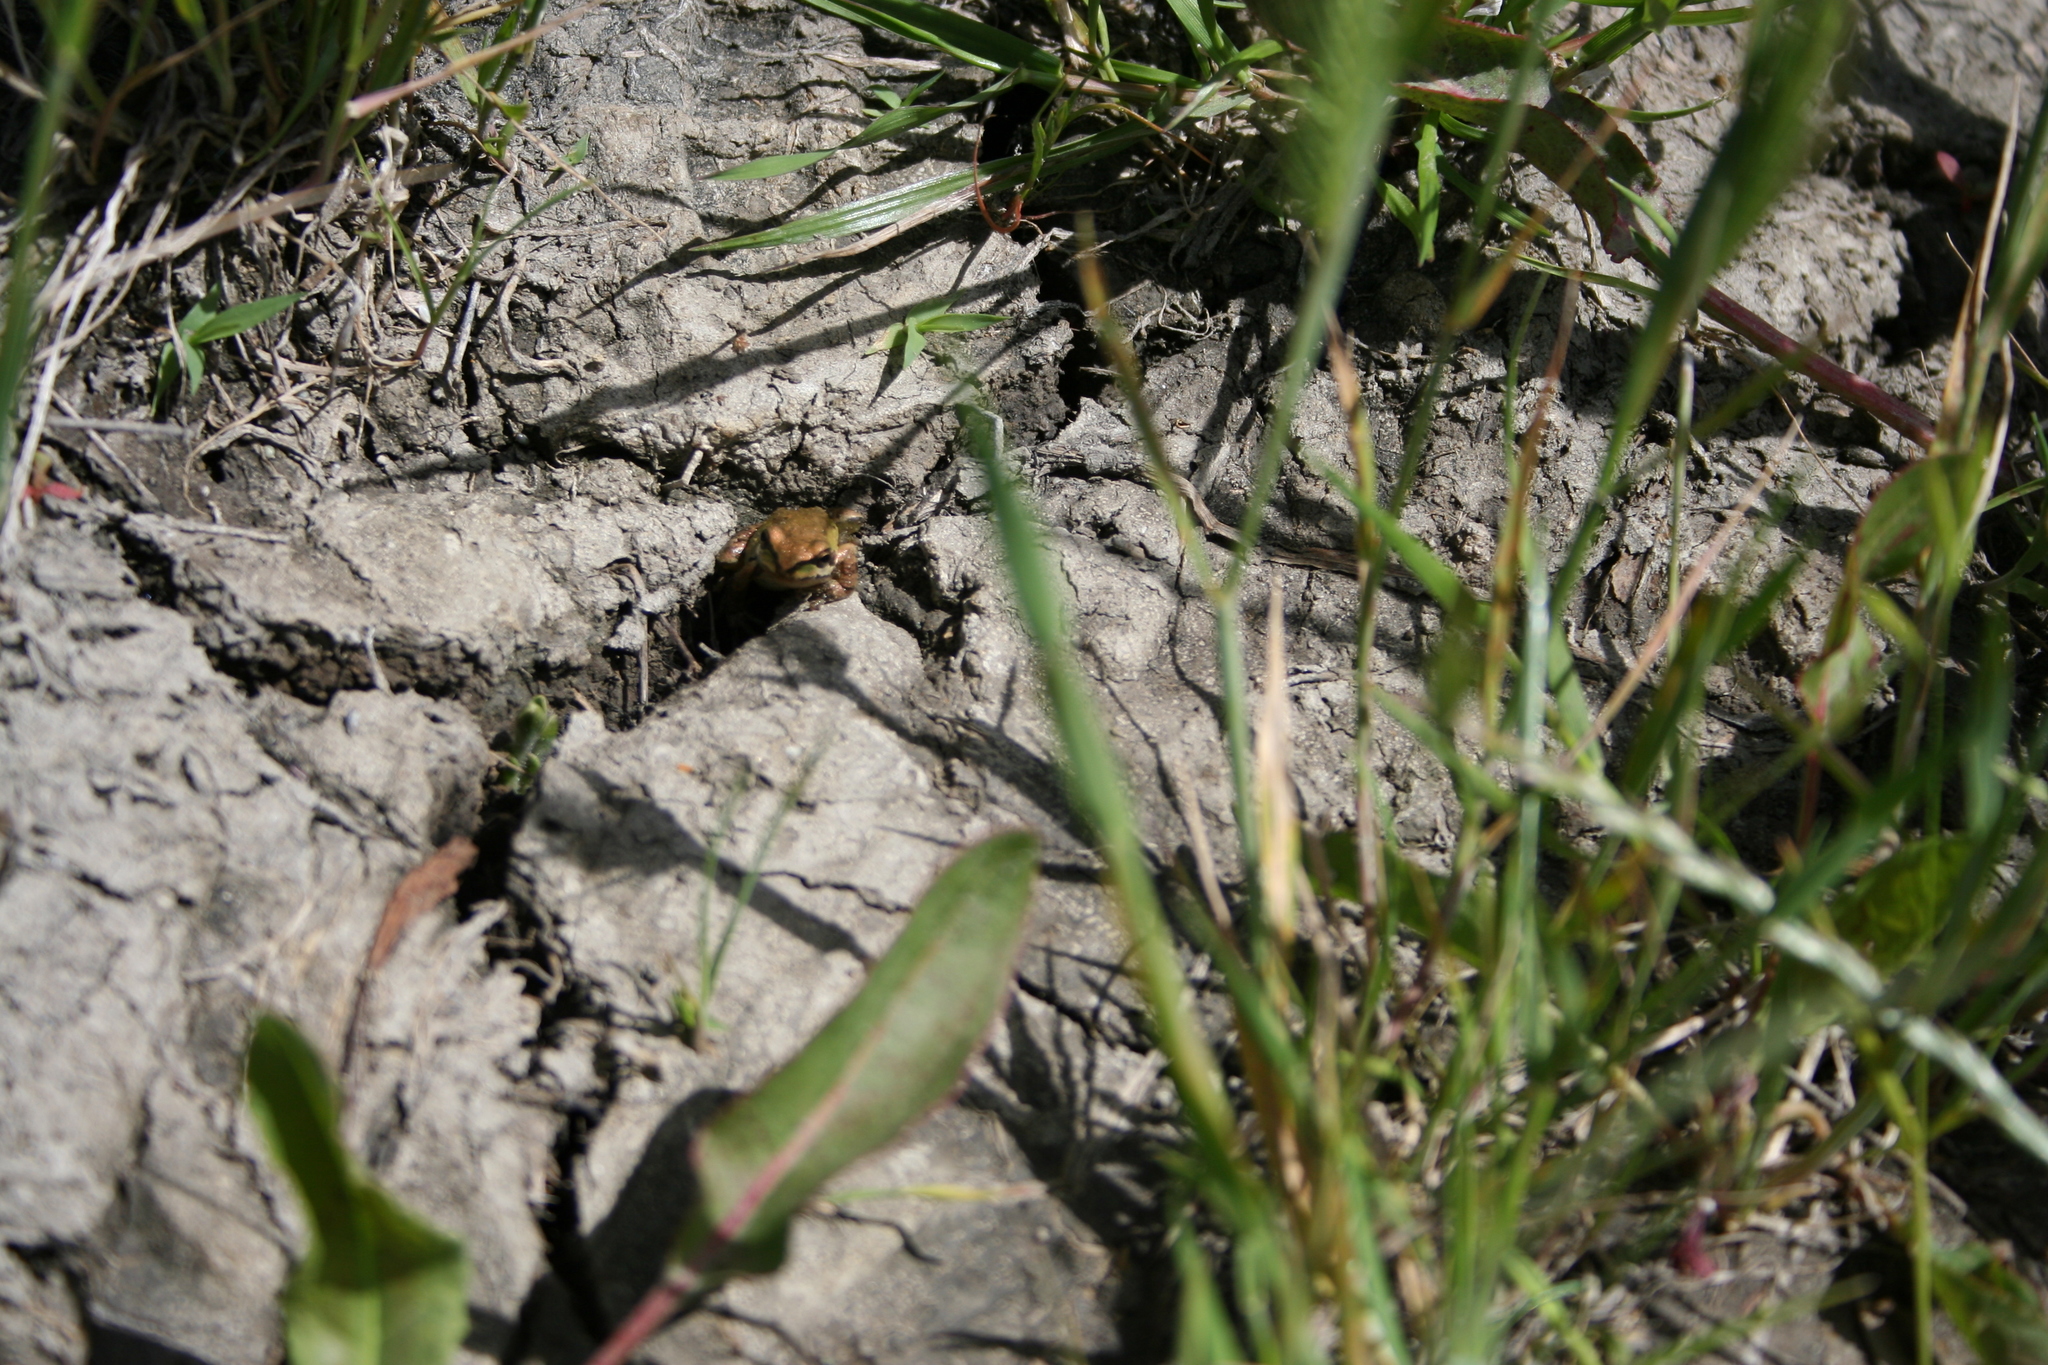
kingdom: Animalia
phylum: Chordata
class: Amphibia
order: Anura
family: Hylidae
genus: Pseudacris
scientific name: Pseudacris regilla
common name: Pacific chorus frog
